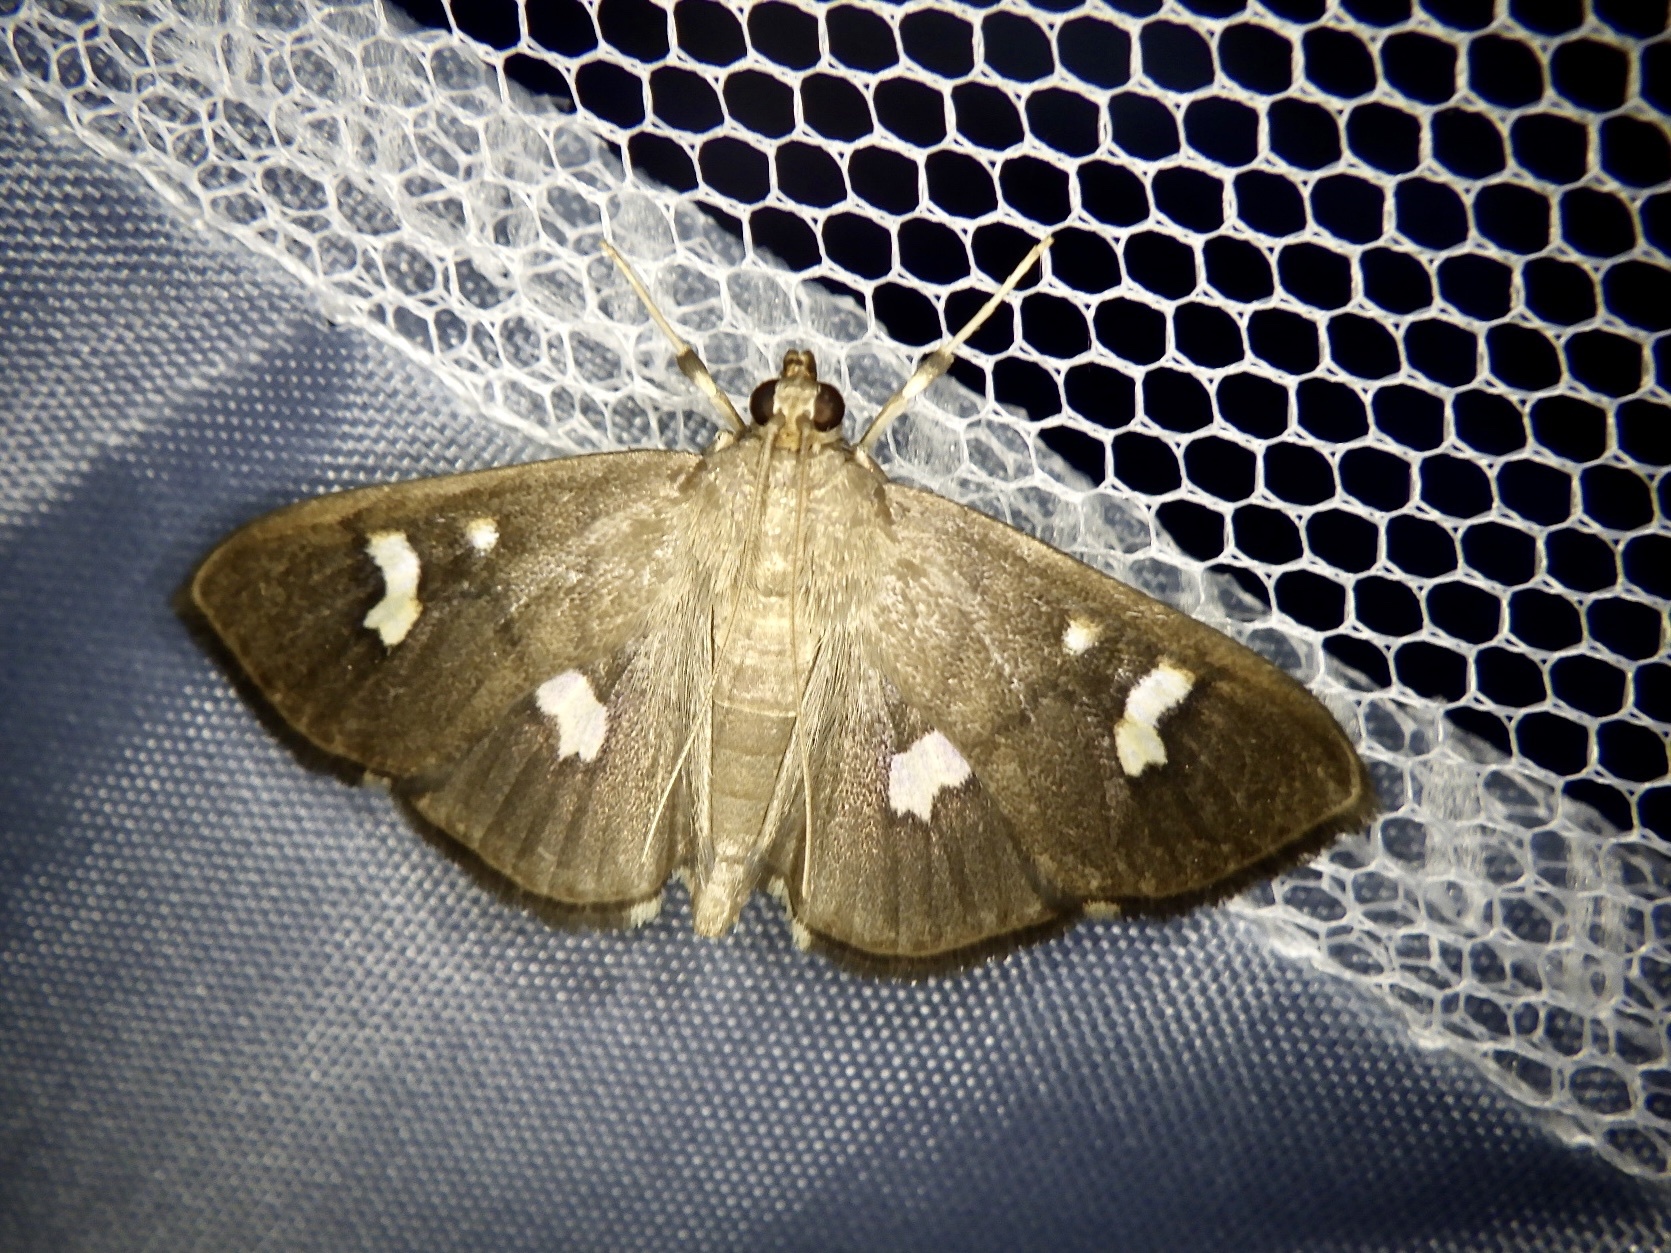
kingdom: Animalia
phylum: Arthropoda
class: Insecta
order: Lepidoptera
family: Crambidae
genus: Nagiella
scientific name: Nagiella quadrimaculalis
